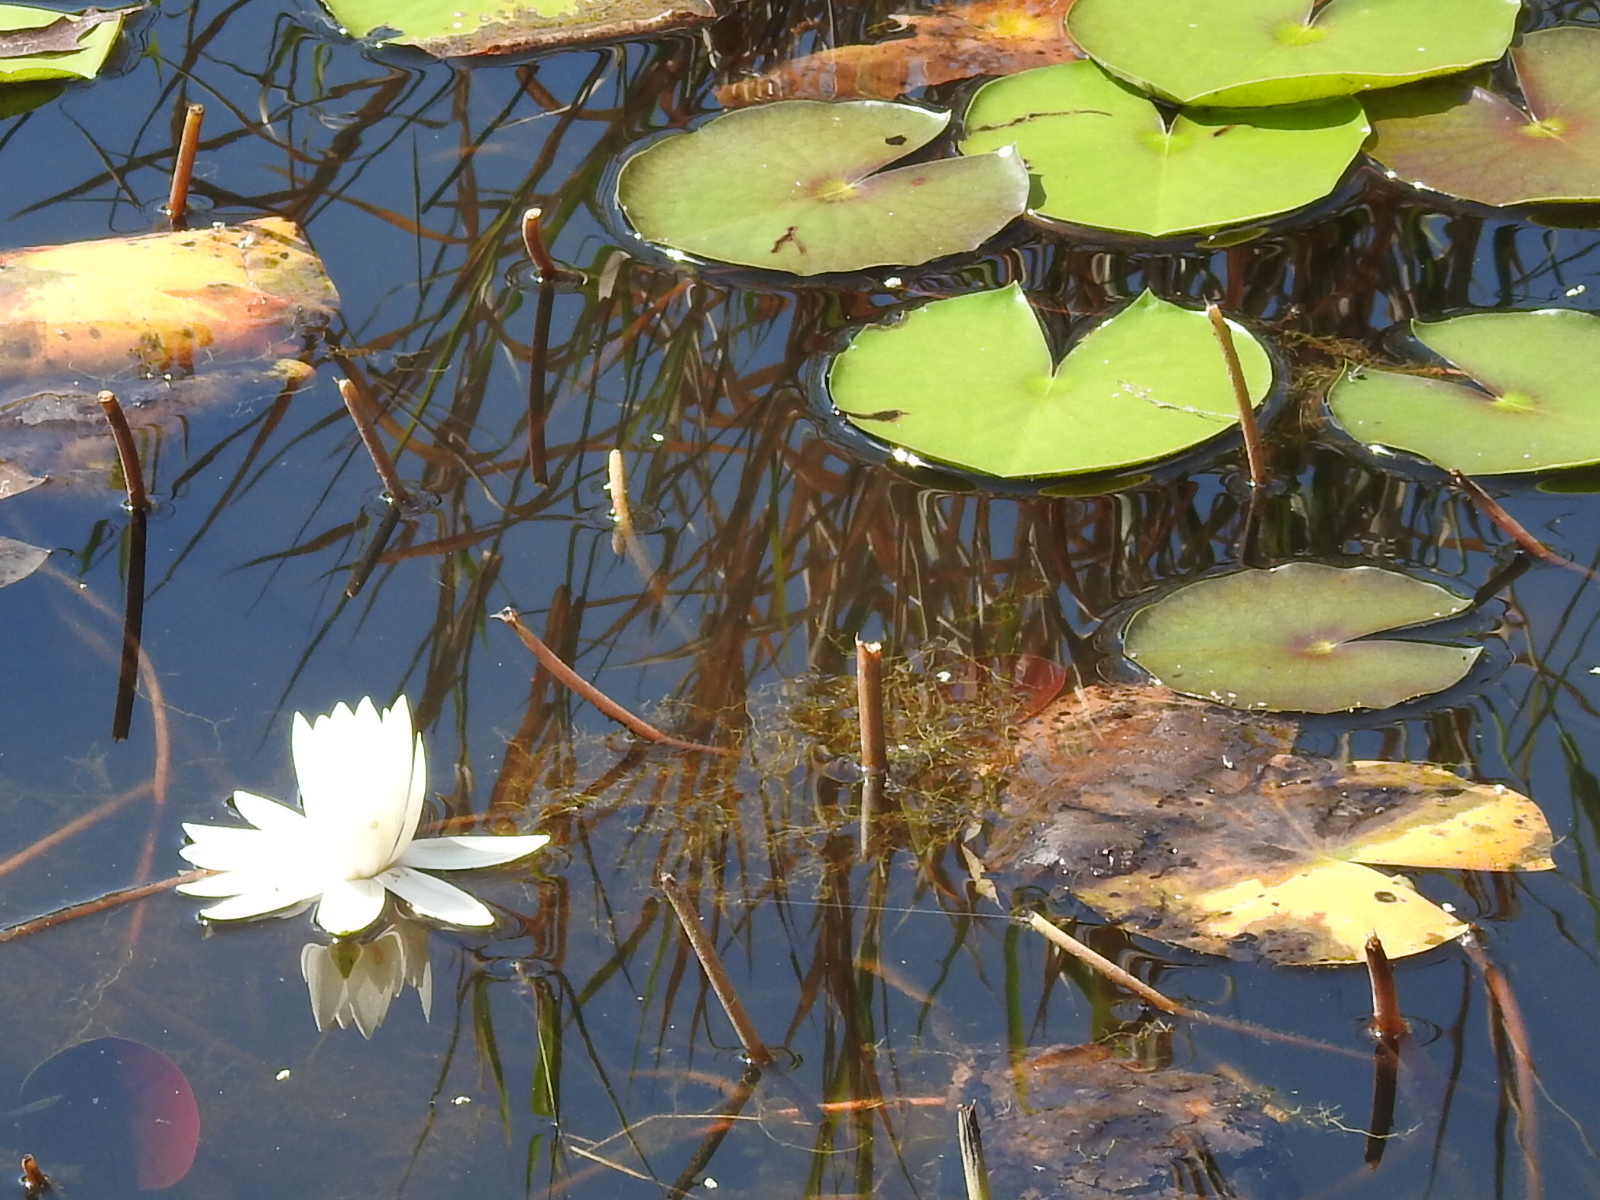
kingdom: Plantae
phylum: Tracheophyta
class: Magnoliopsida
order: Nymphaeales
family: Nymphaeaceae
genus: Nymphaea
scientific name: Nymphaea odorata
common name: Fragrant water-lily
